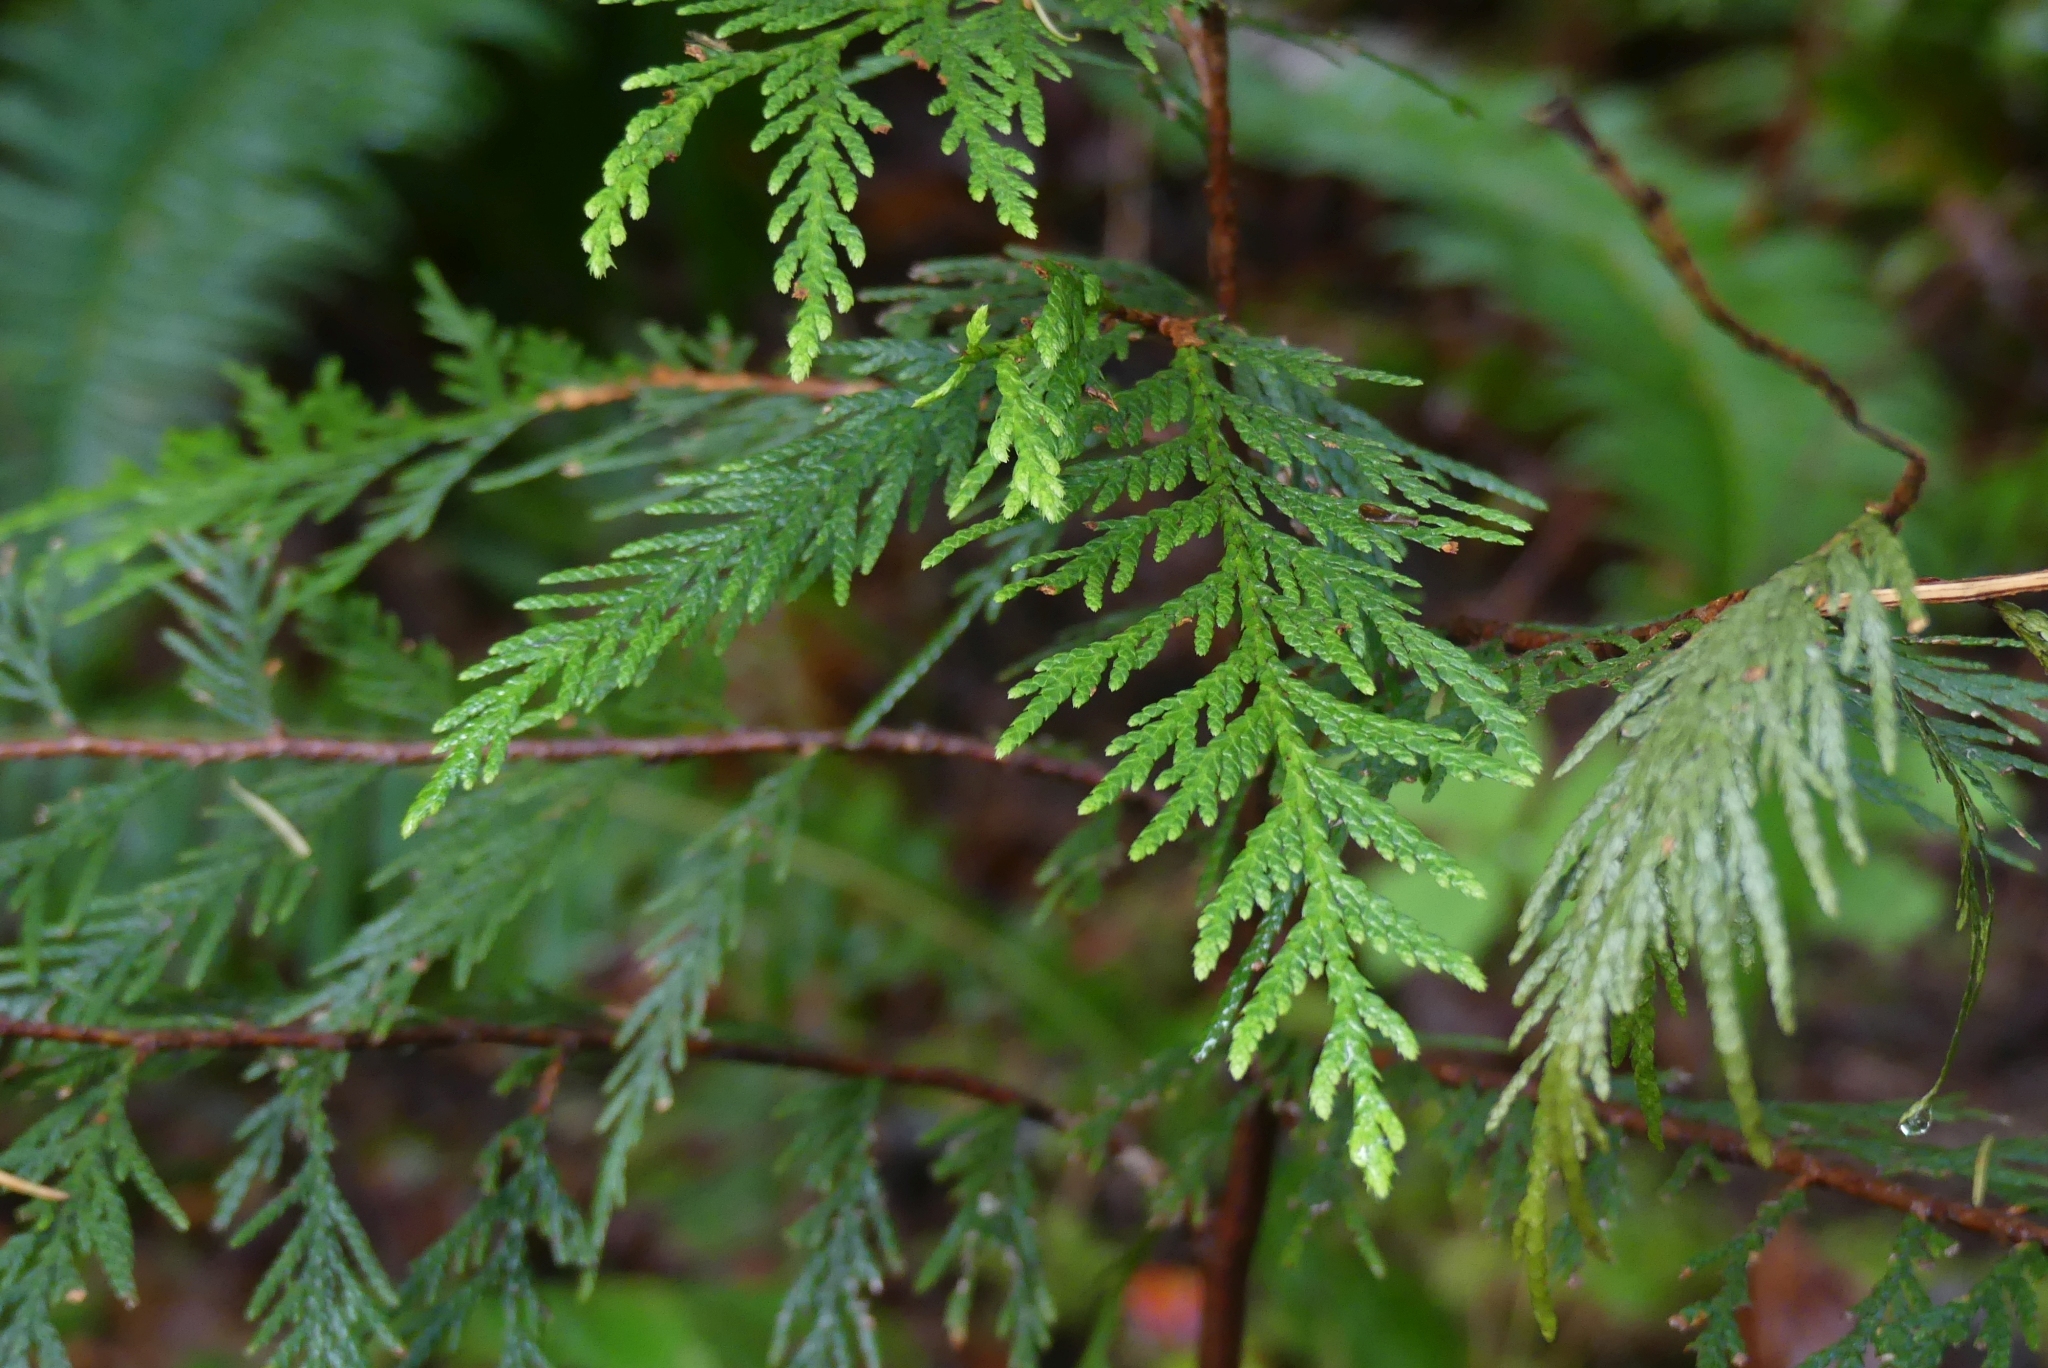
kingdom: Plantae
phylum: Tracheophyta
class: Pinopsida
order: Pinales
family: Cupressaceae
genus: Thuja
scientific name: Thuja plicata
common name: Western red-cedar
